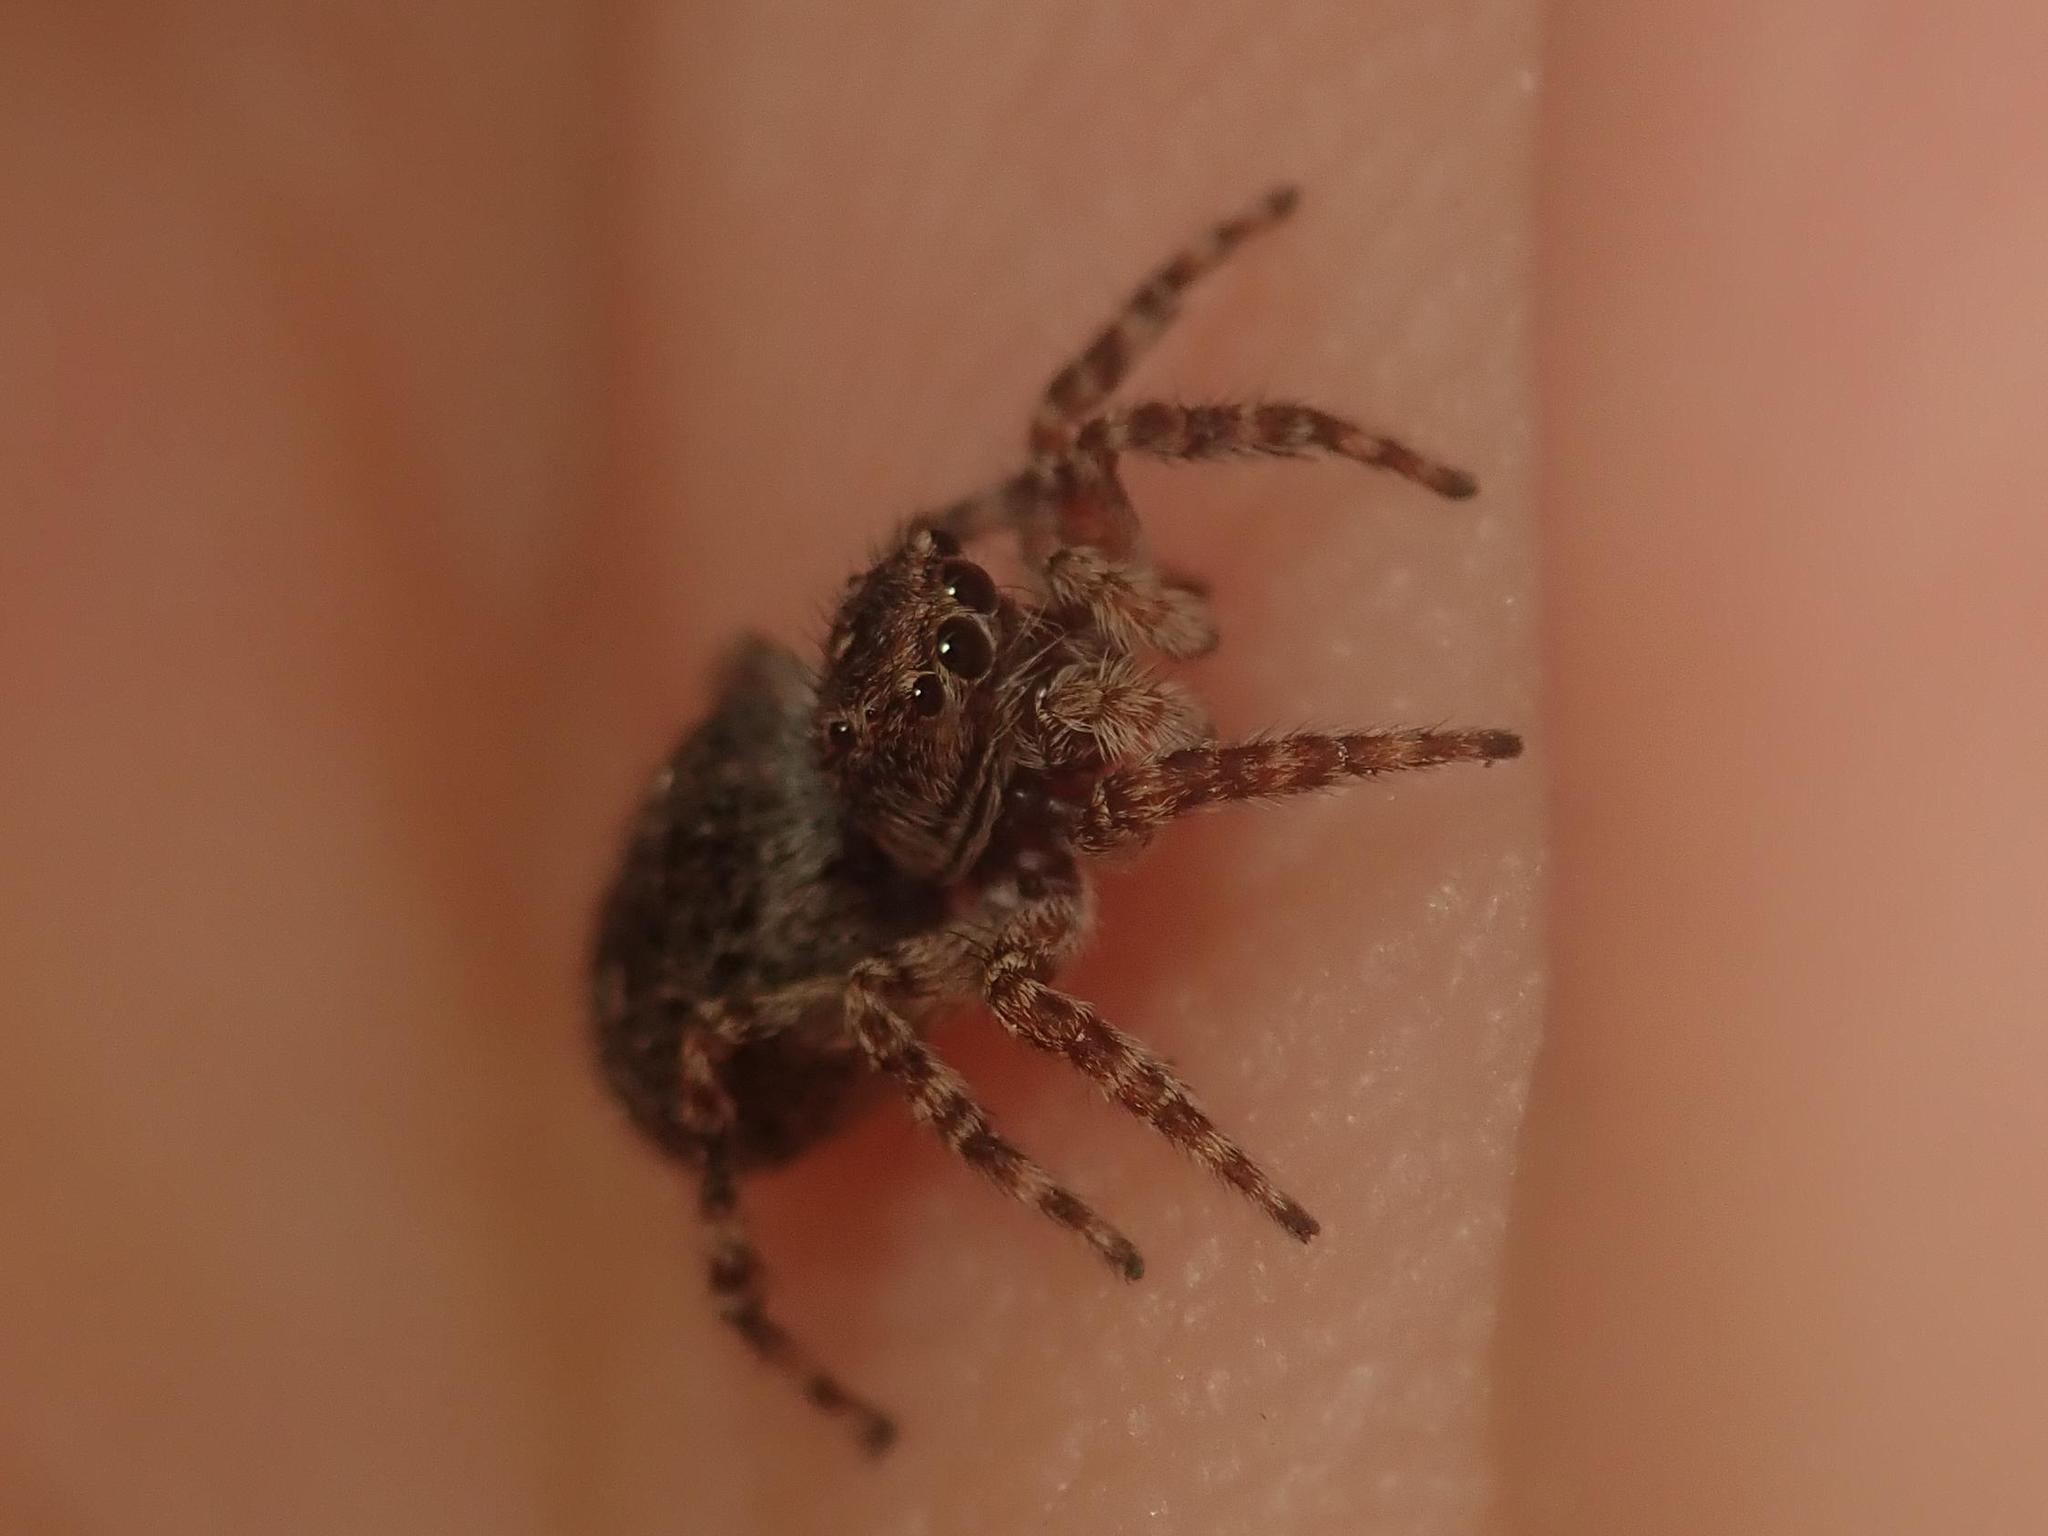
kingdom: Animalia
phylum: Arthropoda
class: Arachnida
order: Araneae
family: Salticidae
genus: Attulus
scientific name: Attulus pubescens
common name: Jumping spider
